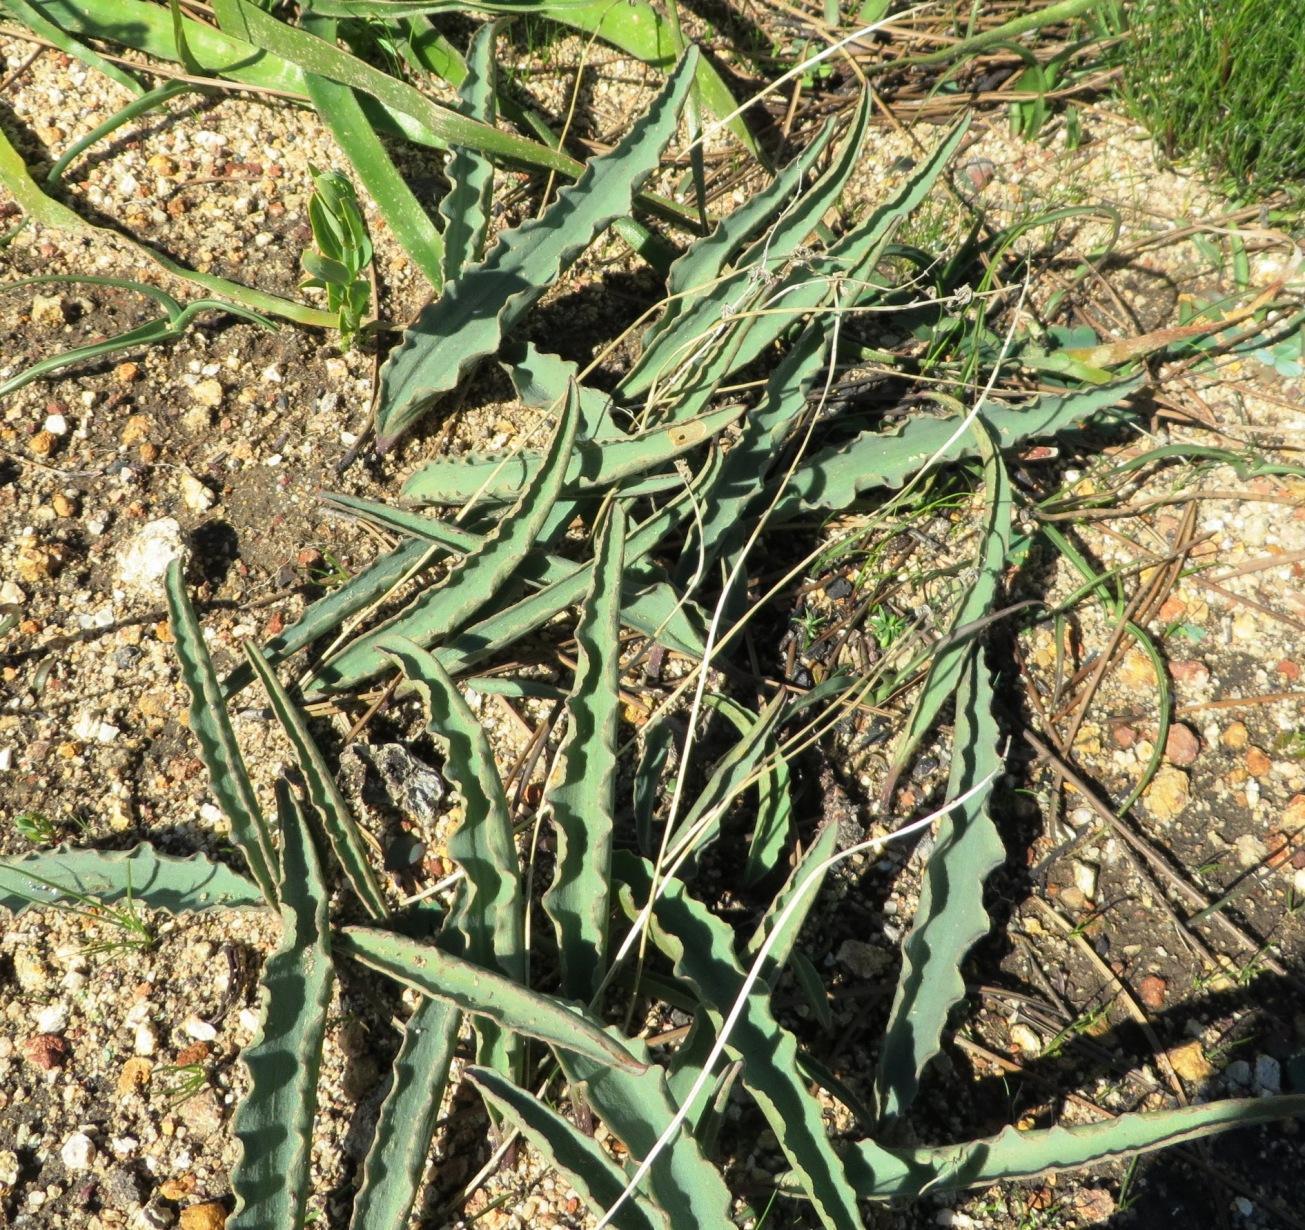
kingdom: Plantae
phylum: Tracheophyta
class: Liliopsida
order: Asparagales
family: Asparagaceae
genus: Eriospermum
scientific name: Eriospermum lanceifolium
